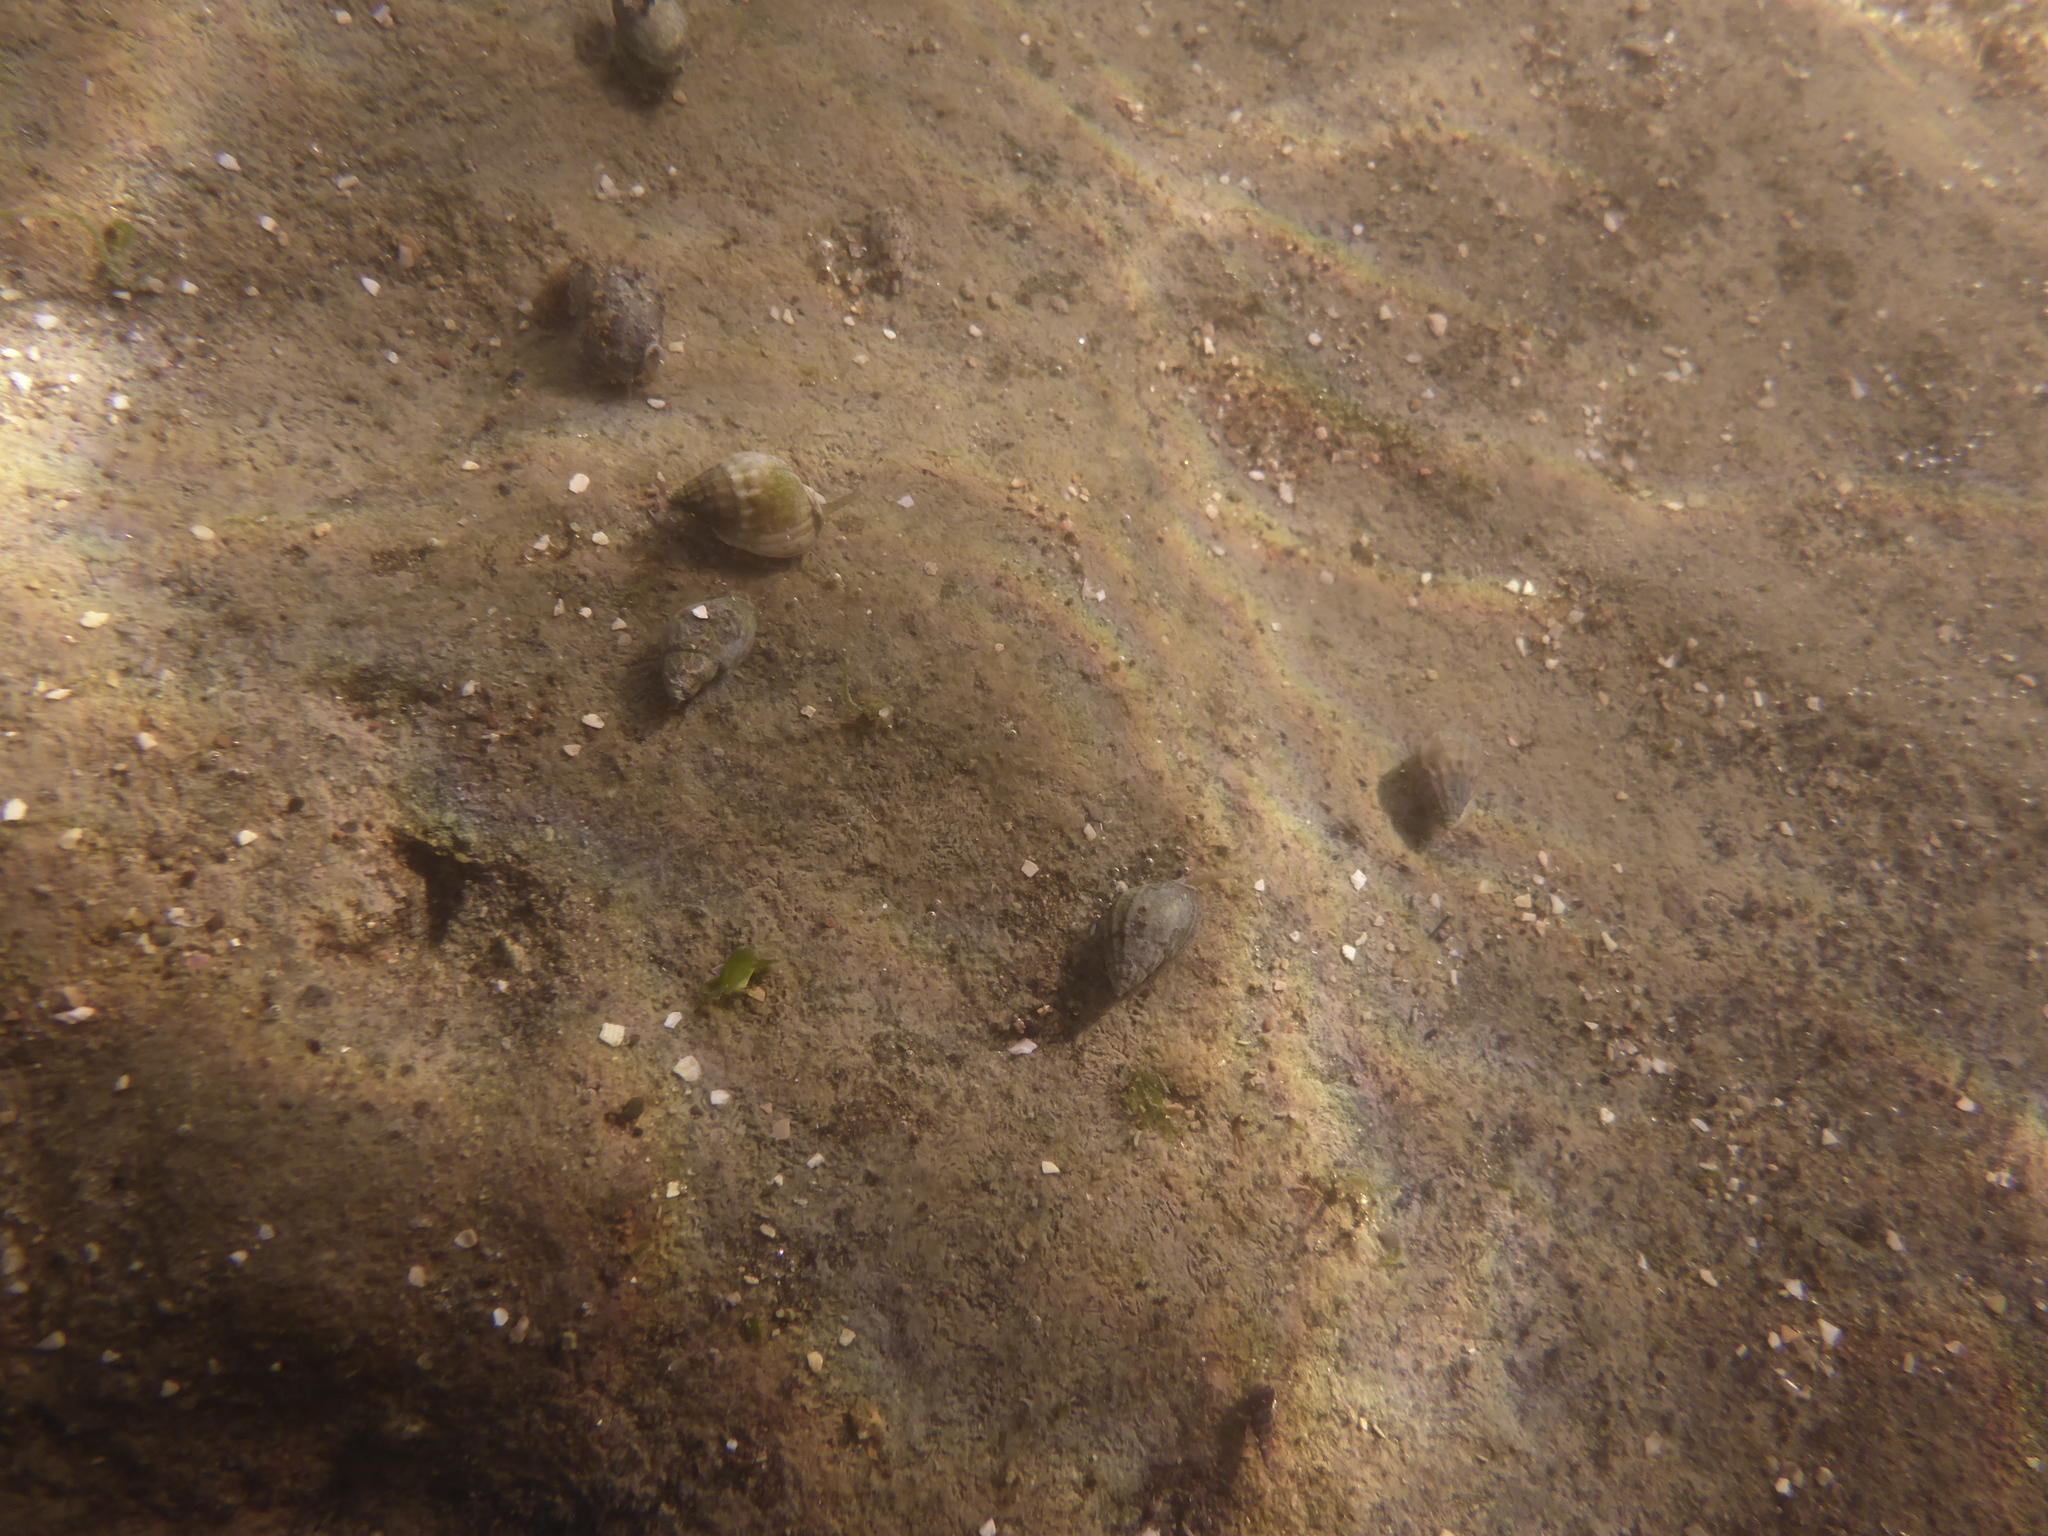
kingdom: Animalia
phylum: Mollusca
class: Gastropoda
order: Neogastropoda
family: Nassariidae
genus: Tritia
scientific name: Tritia burchardi
